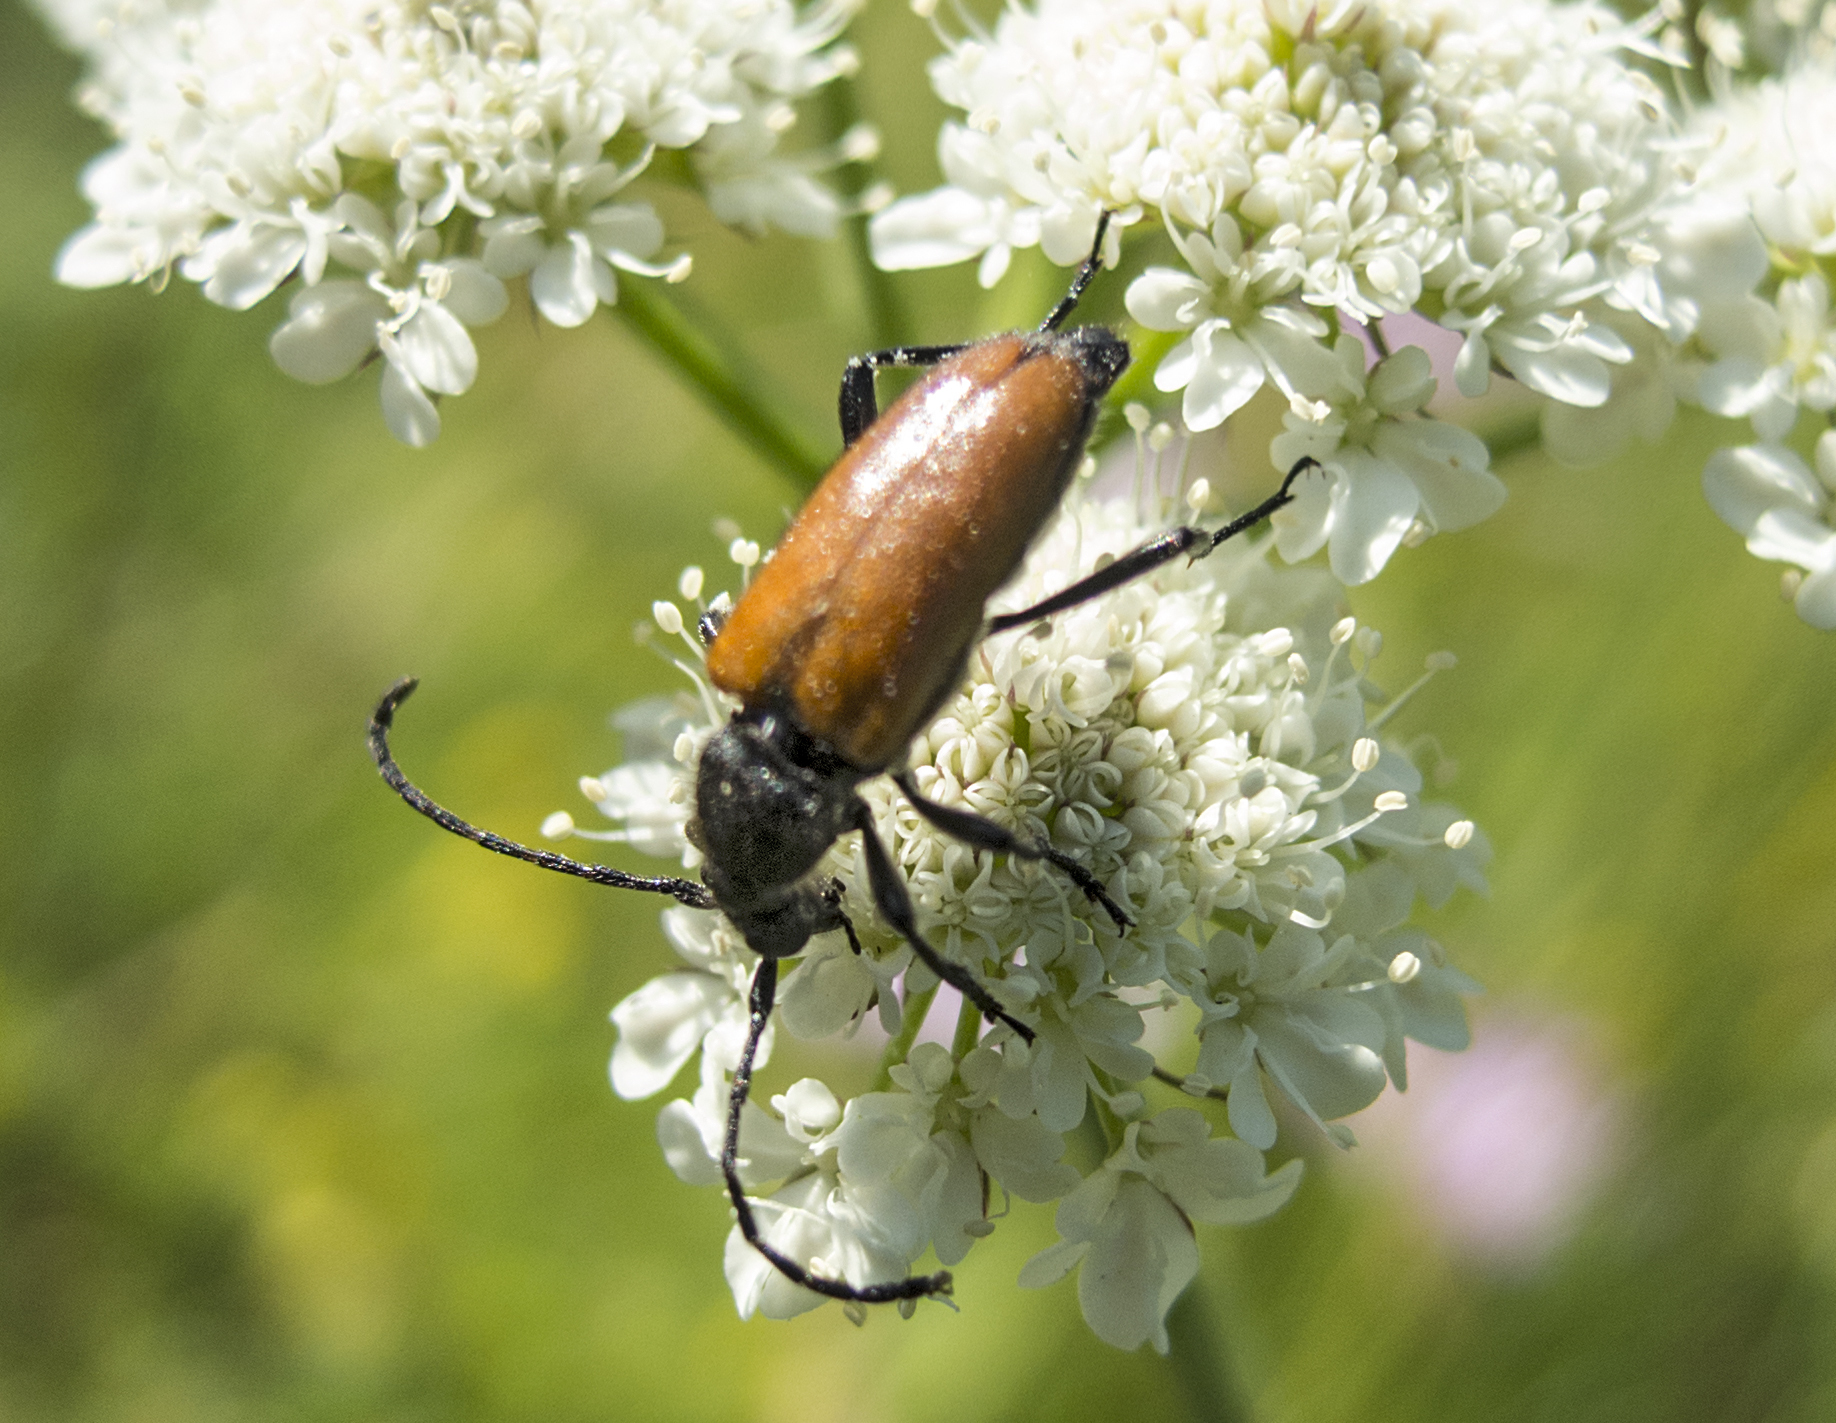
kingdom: Animalia
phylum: Arthropoda
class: Insecta
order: Coleoptera
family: Cerambycidae
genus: Paracorymbia
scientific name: Paracorymbia pallens
